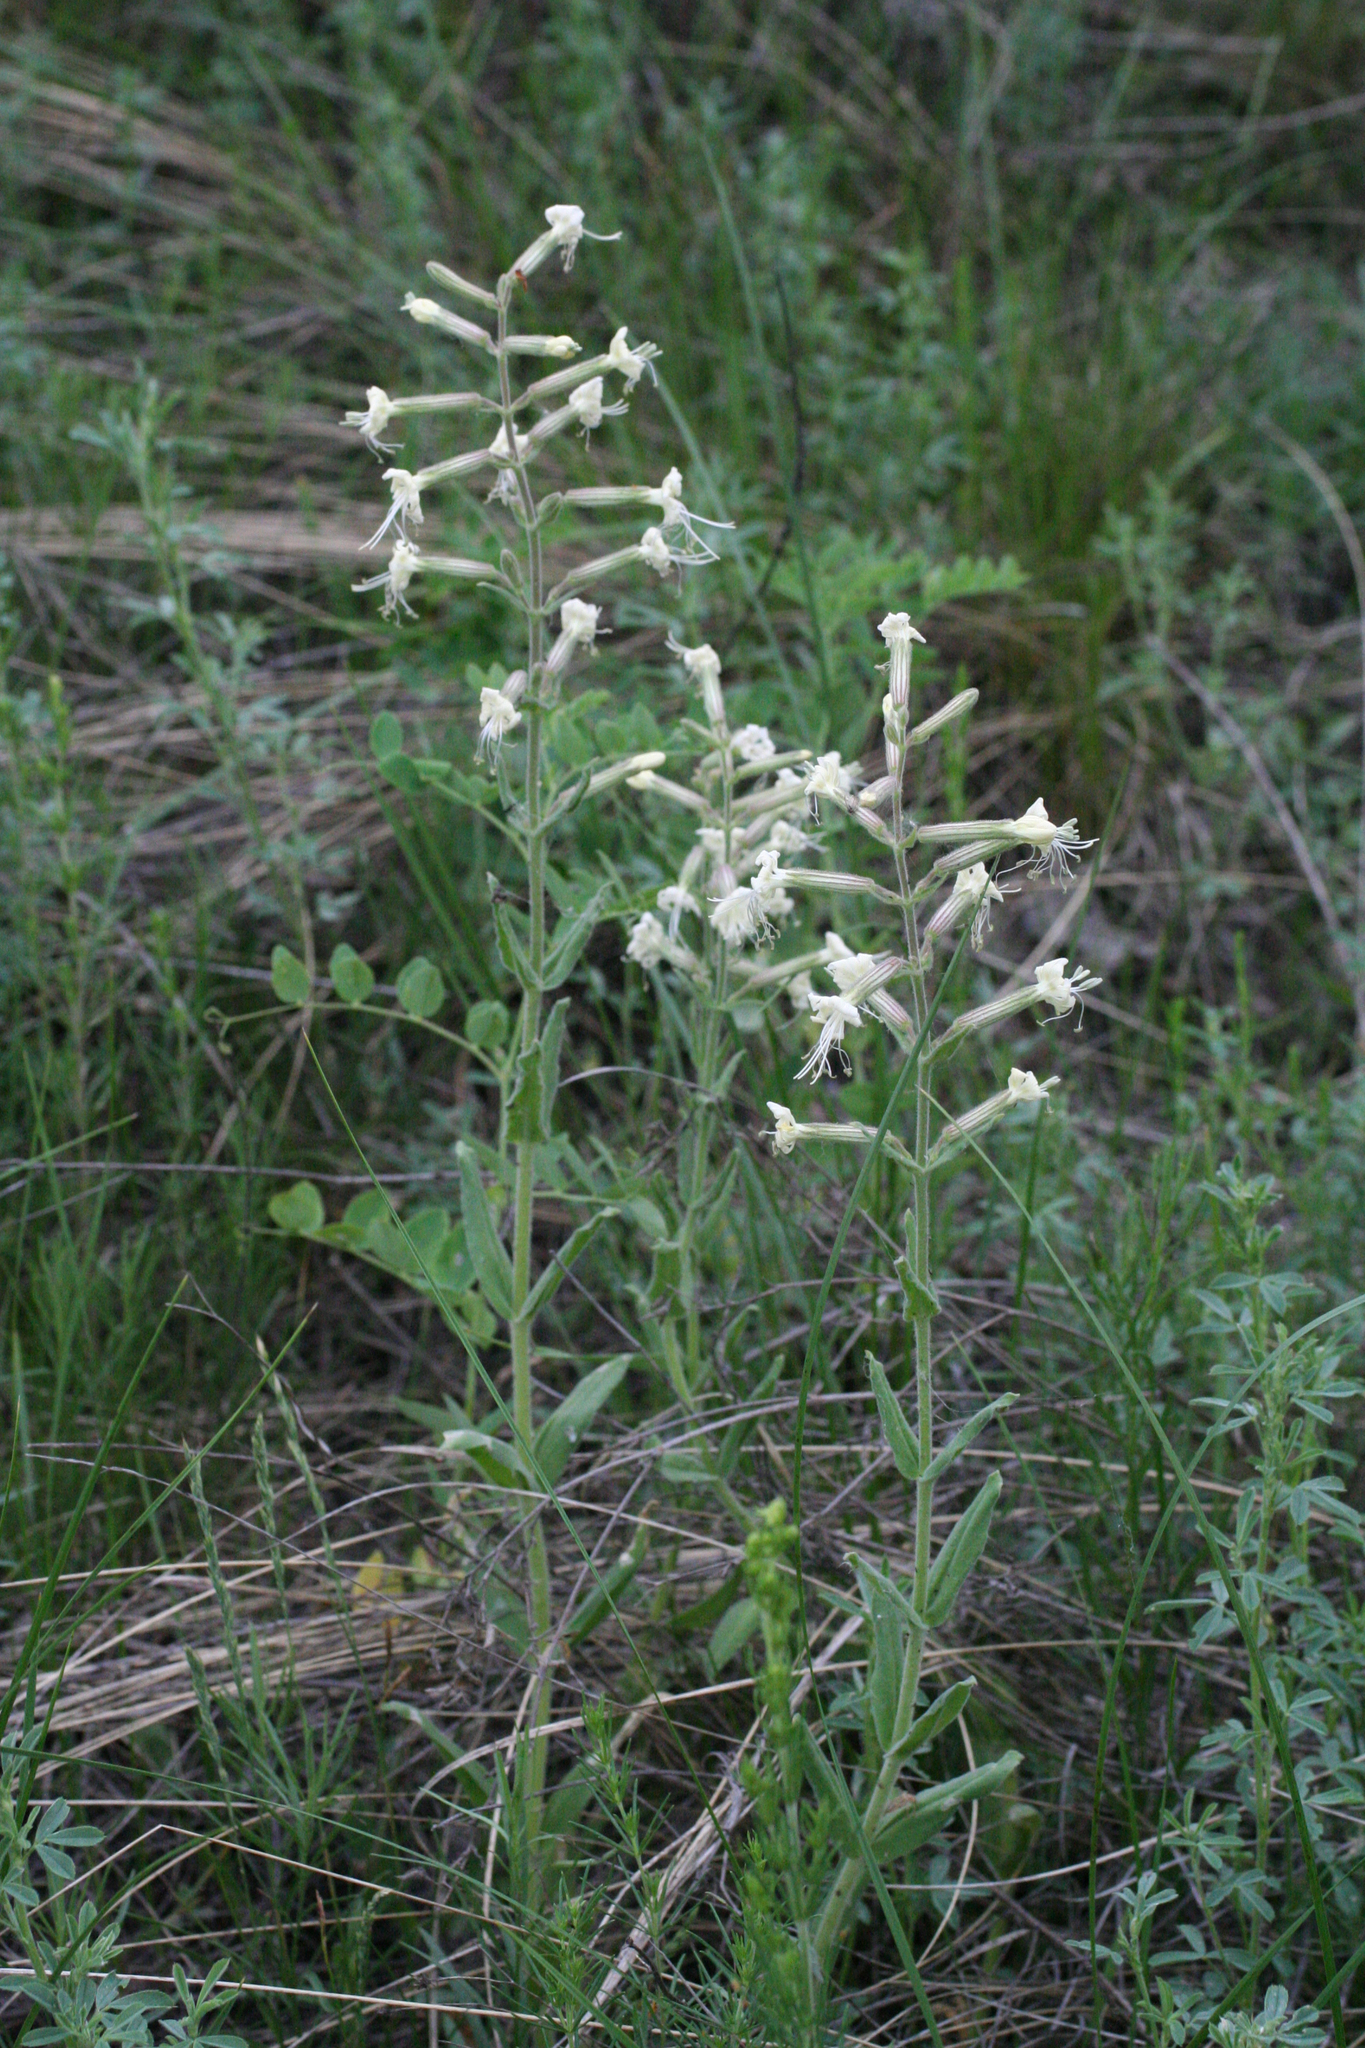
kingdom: Plantae
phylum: Tracheophyta
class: Magnoliopsida
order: Caryophyllales
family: Caryophyllaceae
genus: Silene
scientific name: Silene viscosa
